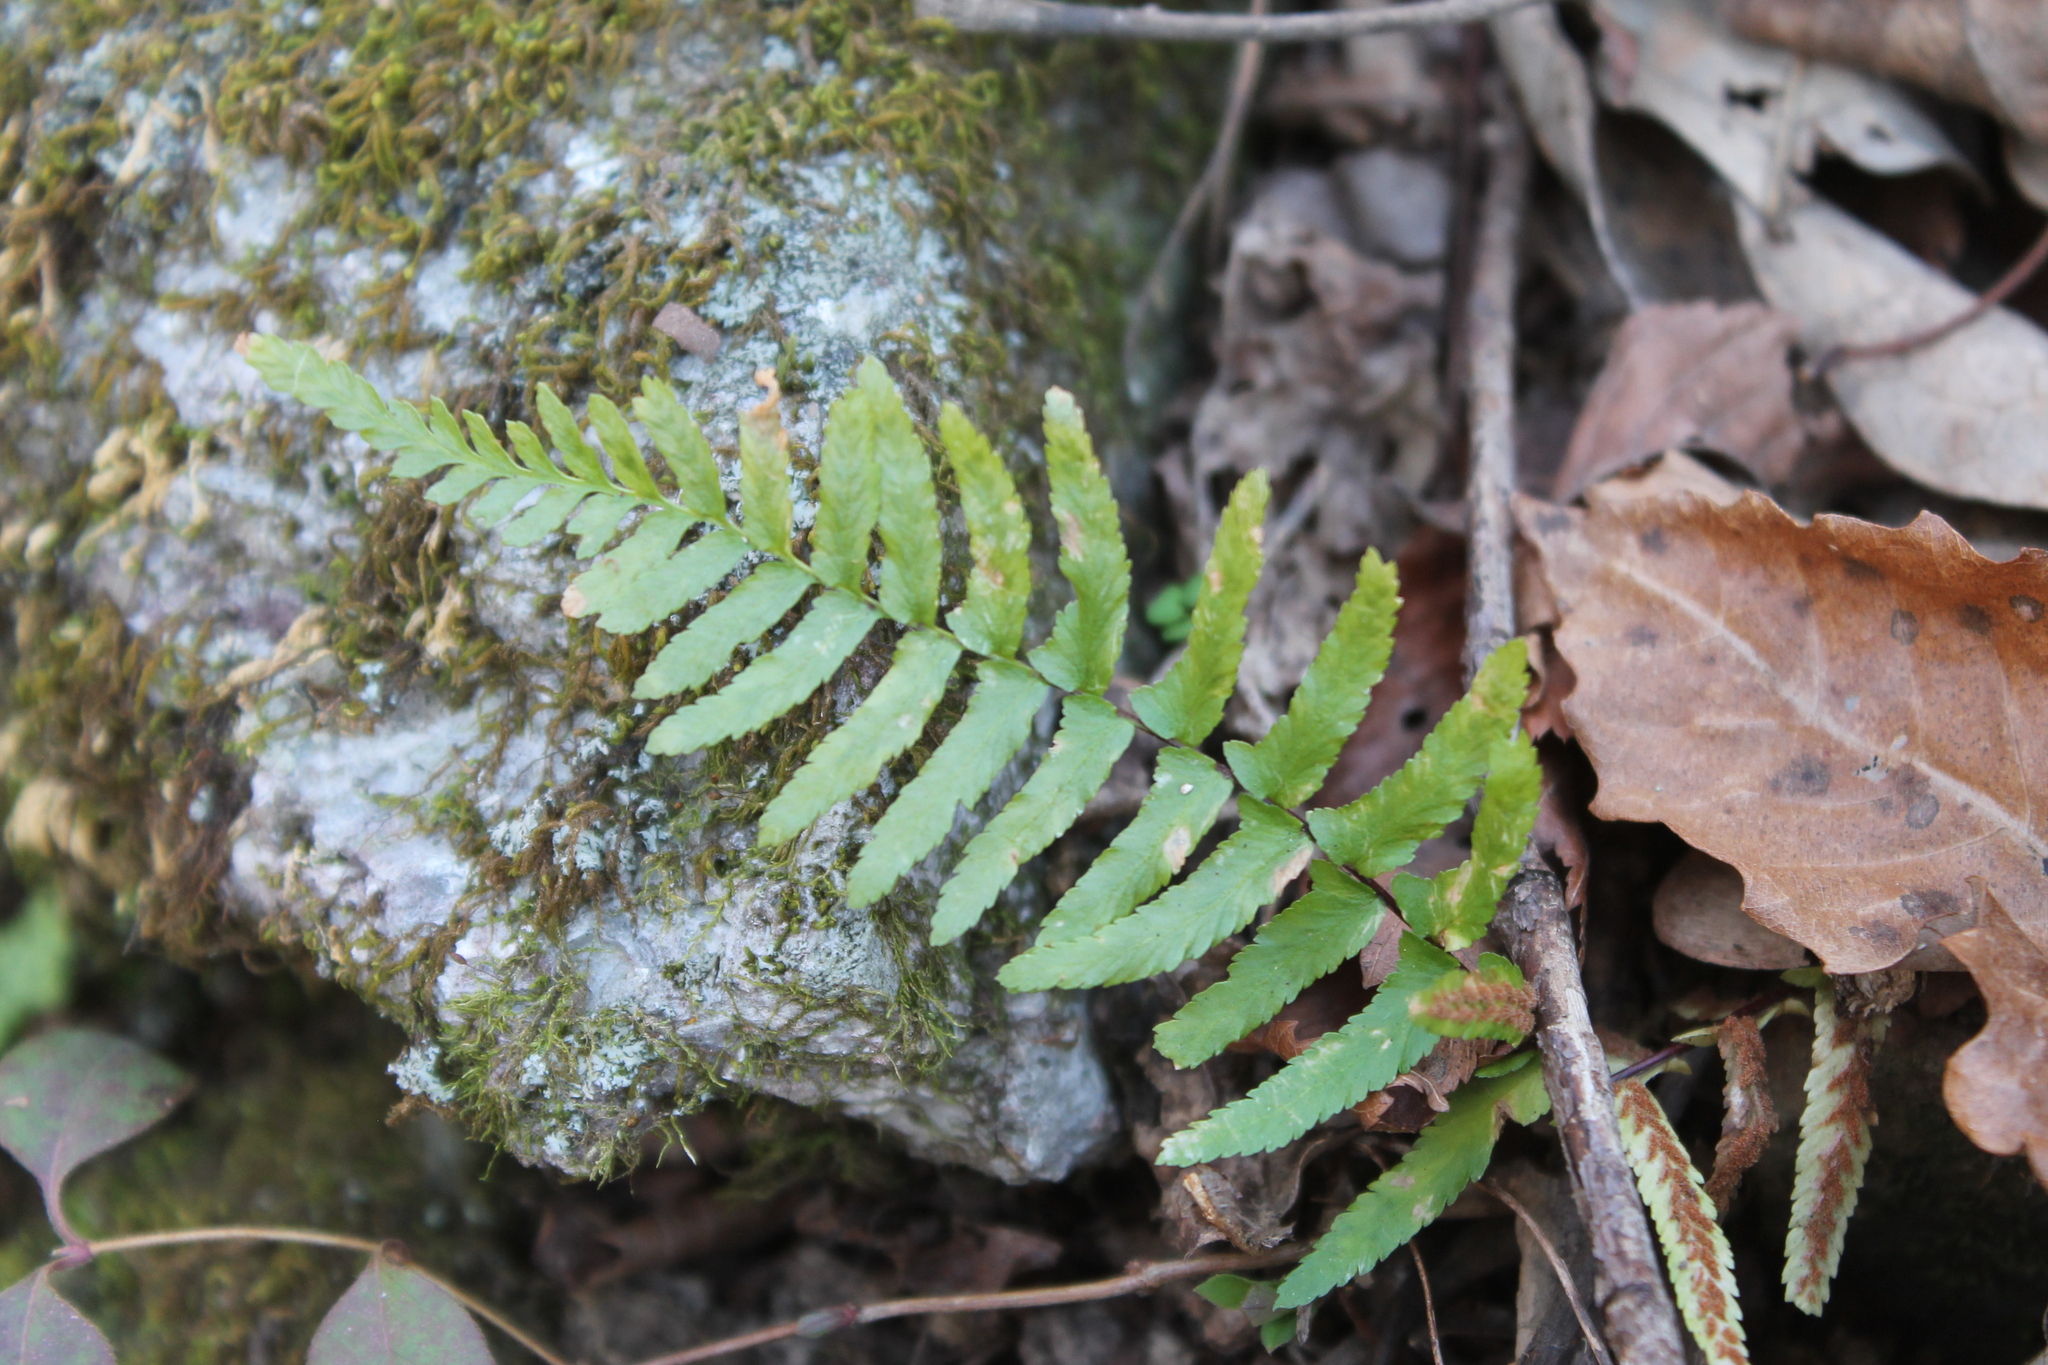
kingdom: Plantae
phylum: Tracheophyta
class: Polypodiopsida
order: Polypodiales
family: Aspleniaceae
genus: Asplenium
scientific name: Asplenium platyneuron
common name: Ebony spleenwort
